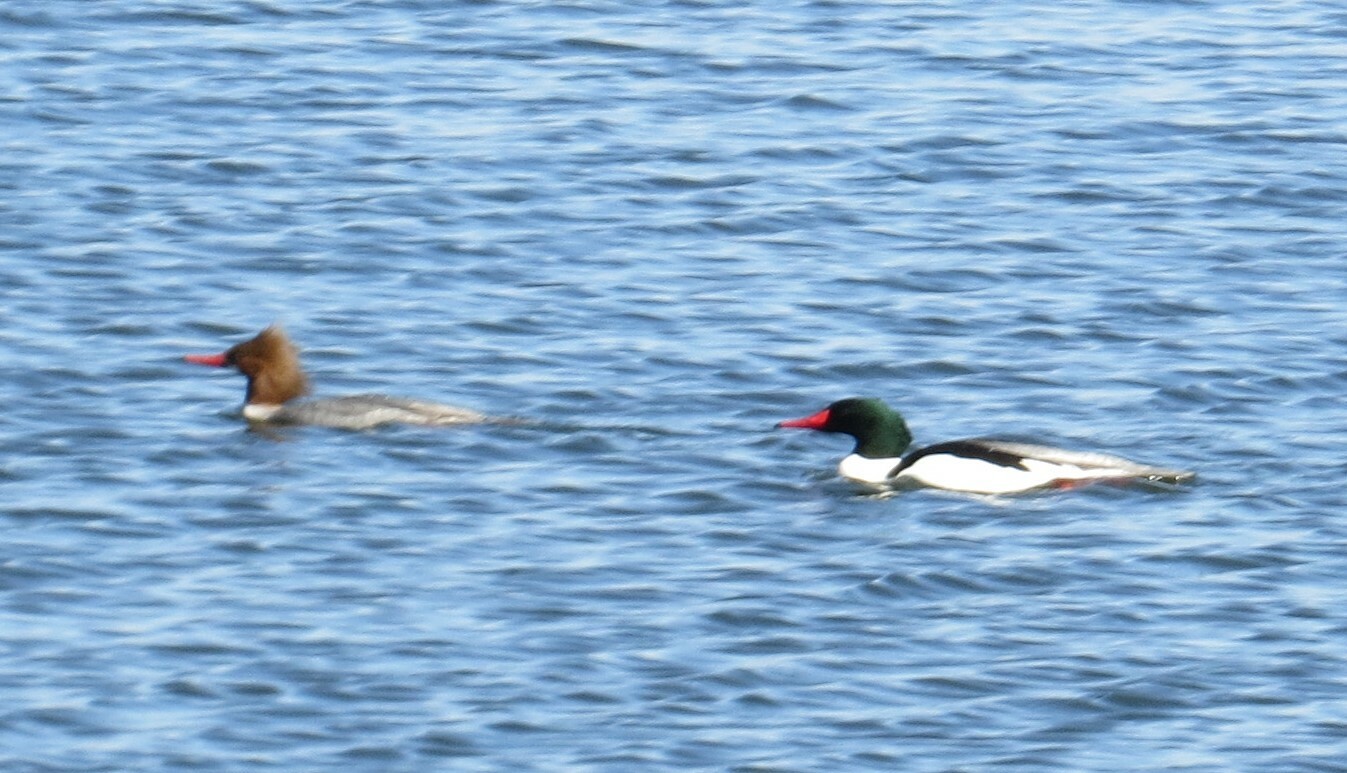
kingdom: Animalia
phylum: Chordata
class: Aves
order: Anseriformes
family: Anatidae
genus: Mergus
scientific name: Mergus merganser
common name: Common merganser
